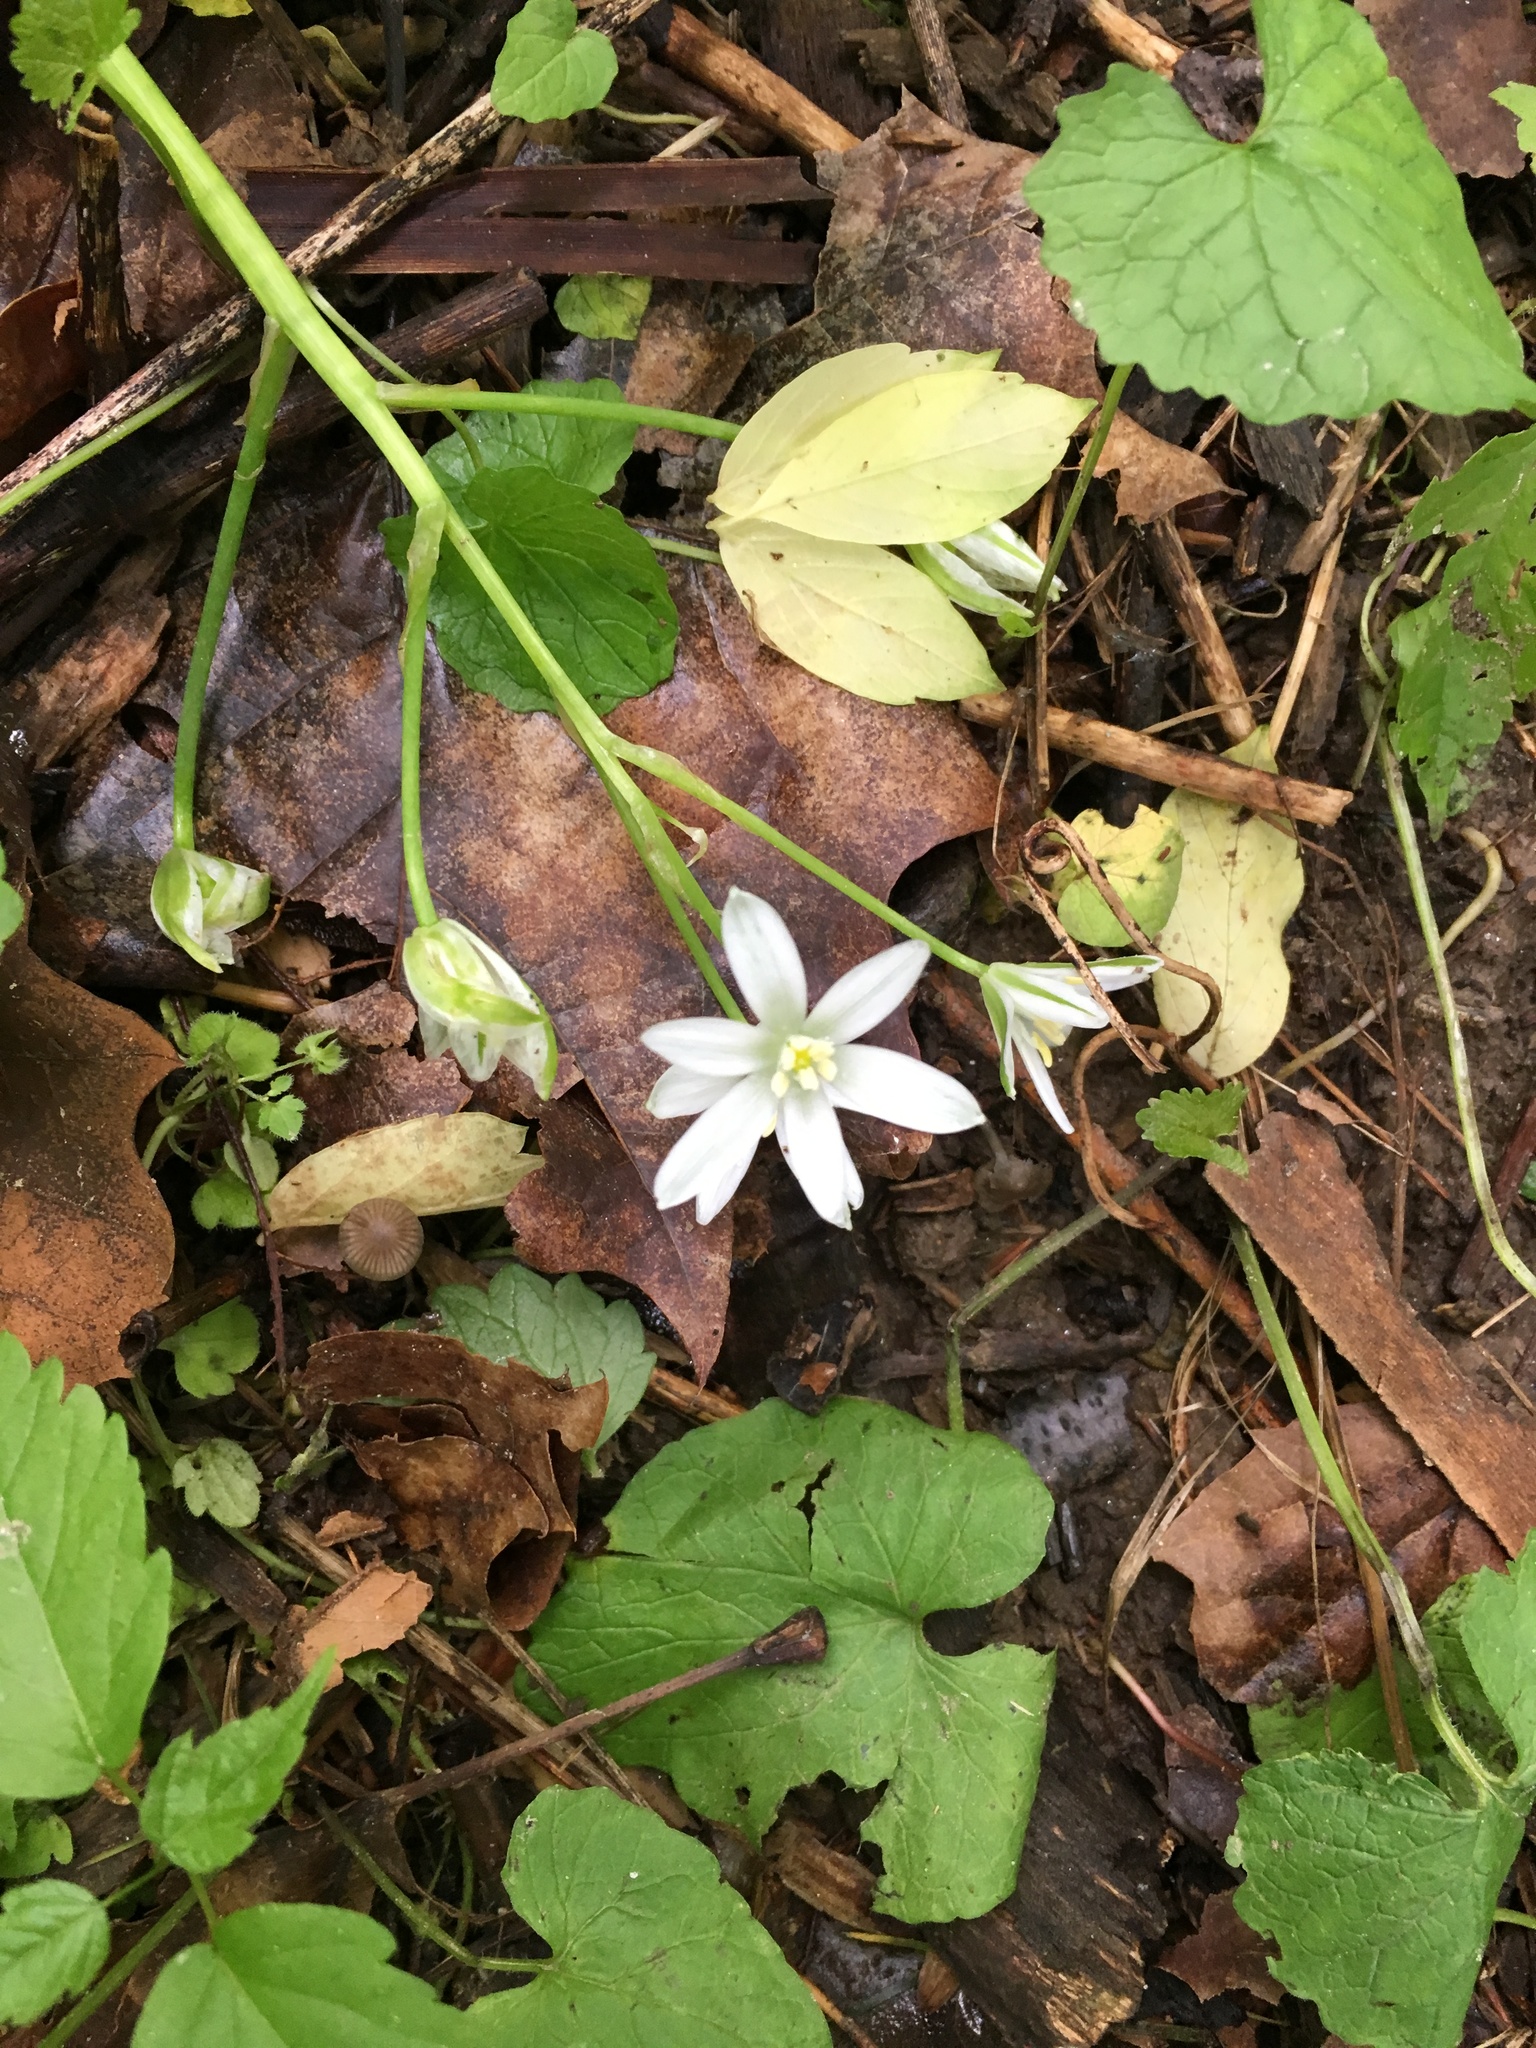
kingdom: Plantae
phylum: Tracheophyta
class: Liliopsida
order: Asparagales
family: Asparagaceae
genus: Ornithogalum
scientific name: Ornithogalum umbellatum
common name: Garden star-of-bethlehem
